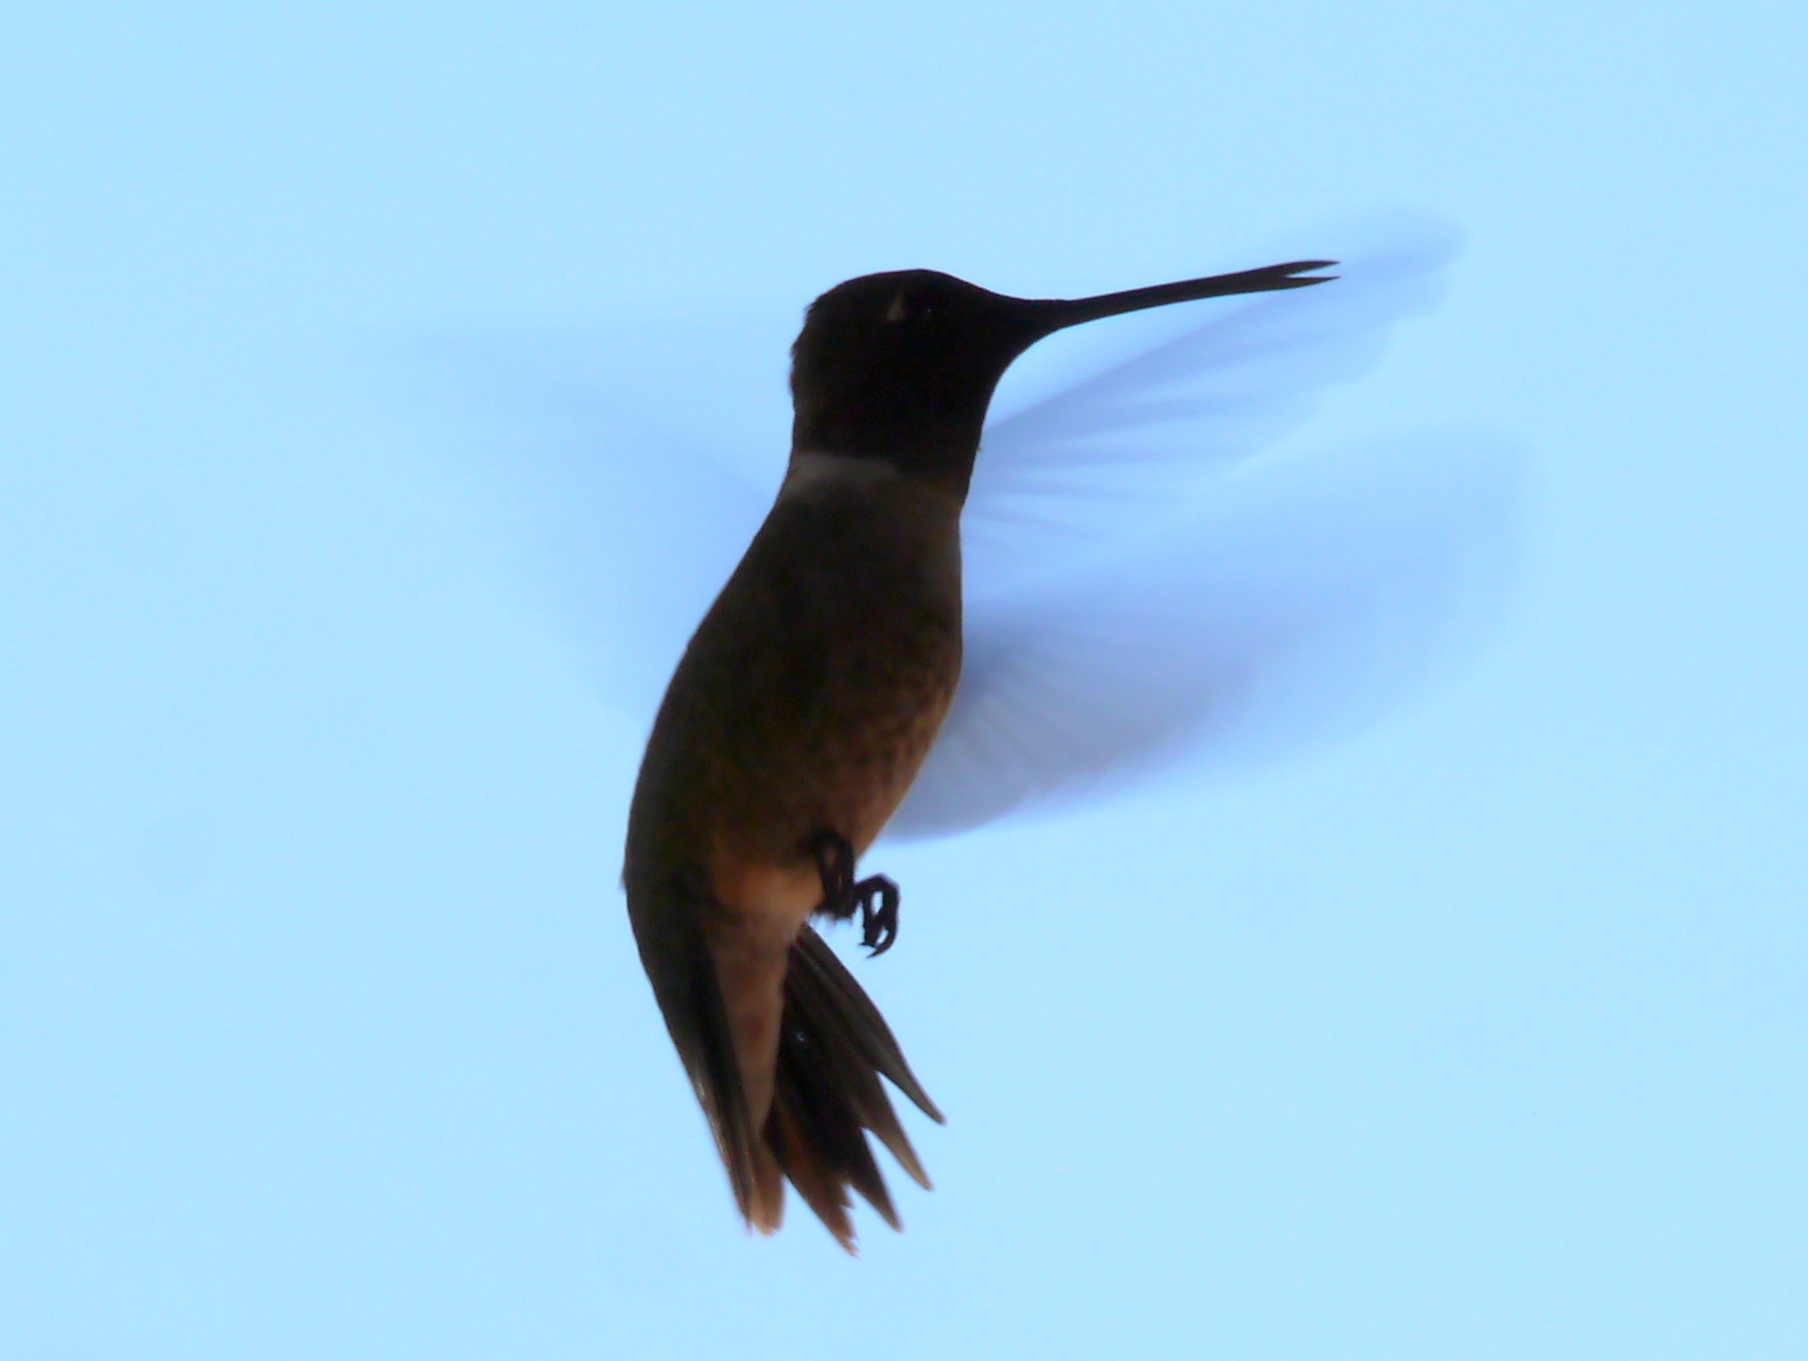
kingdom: Animalia
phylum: Chordata
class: Aves
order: Apodiformes
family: Trochilidae
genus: Archilochus
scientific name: Archilochus alexandri
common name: Black-chinned hummingbird
